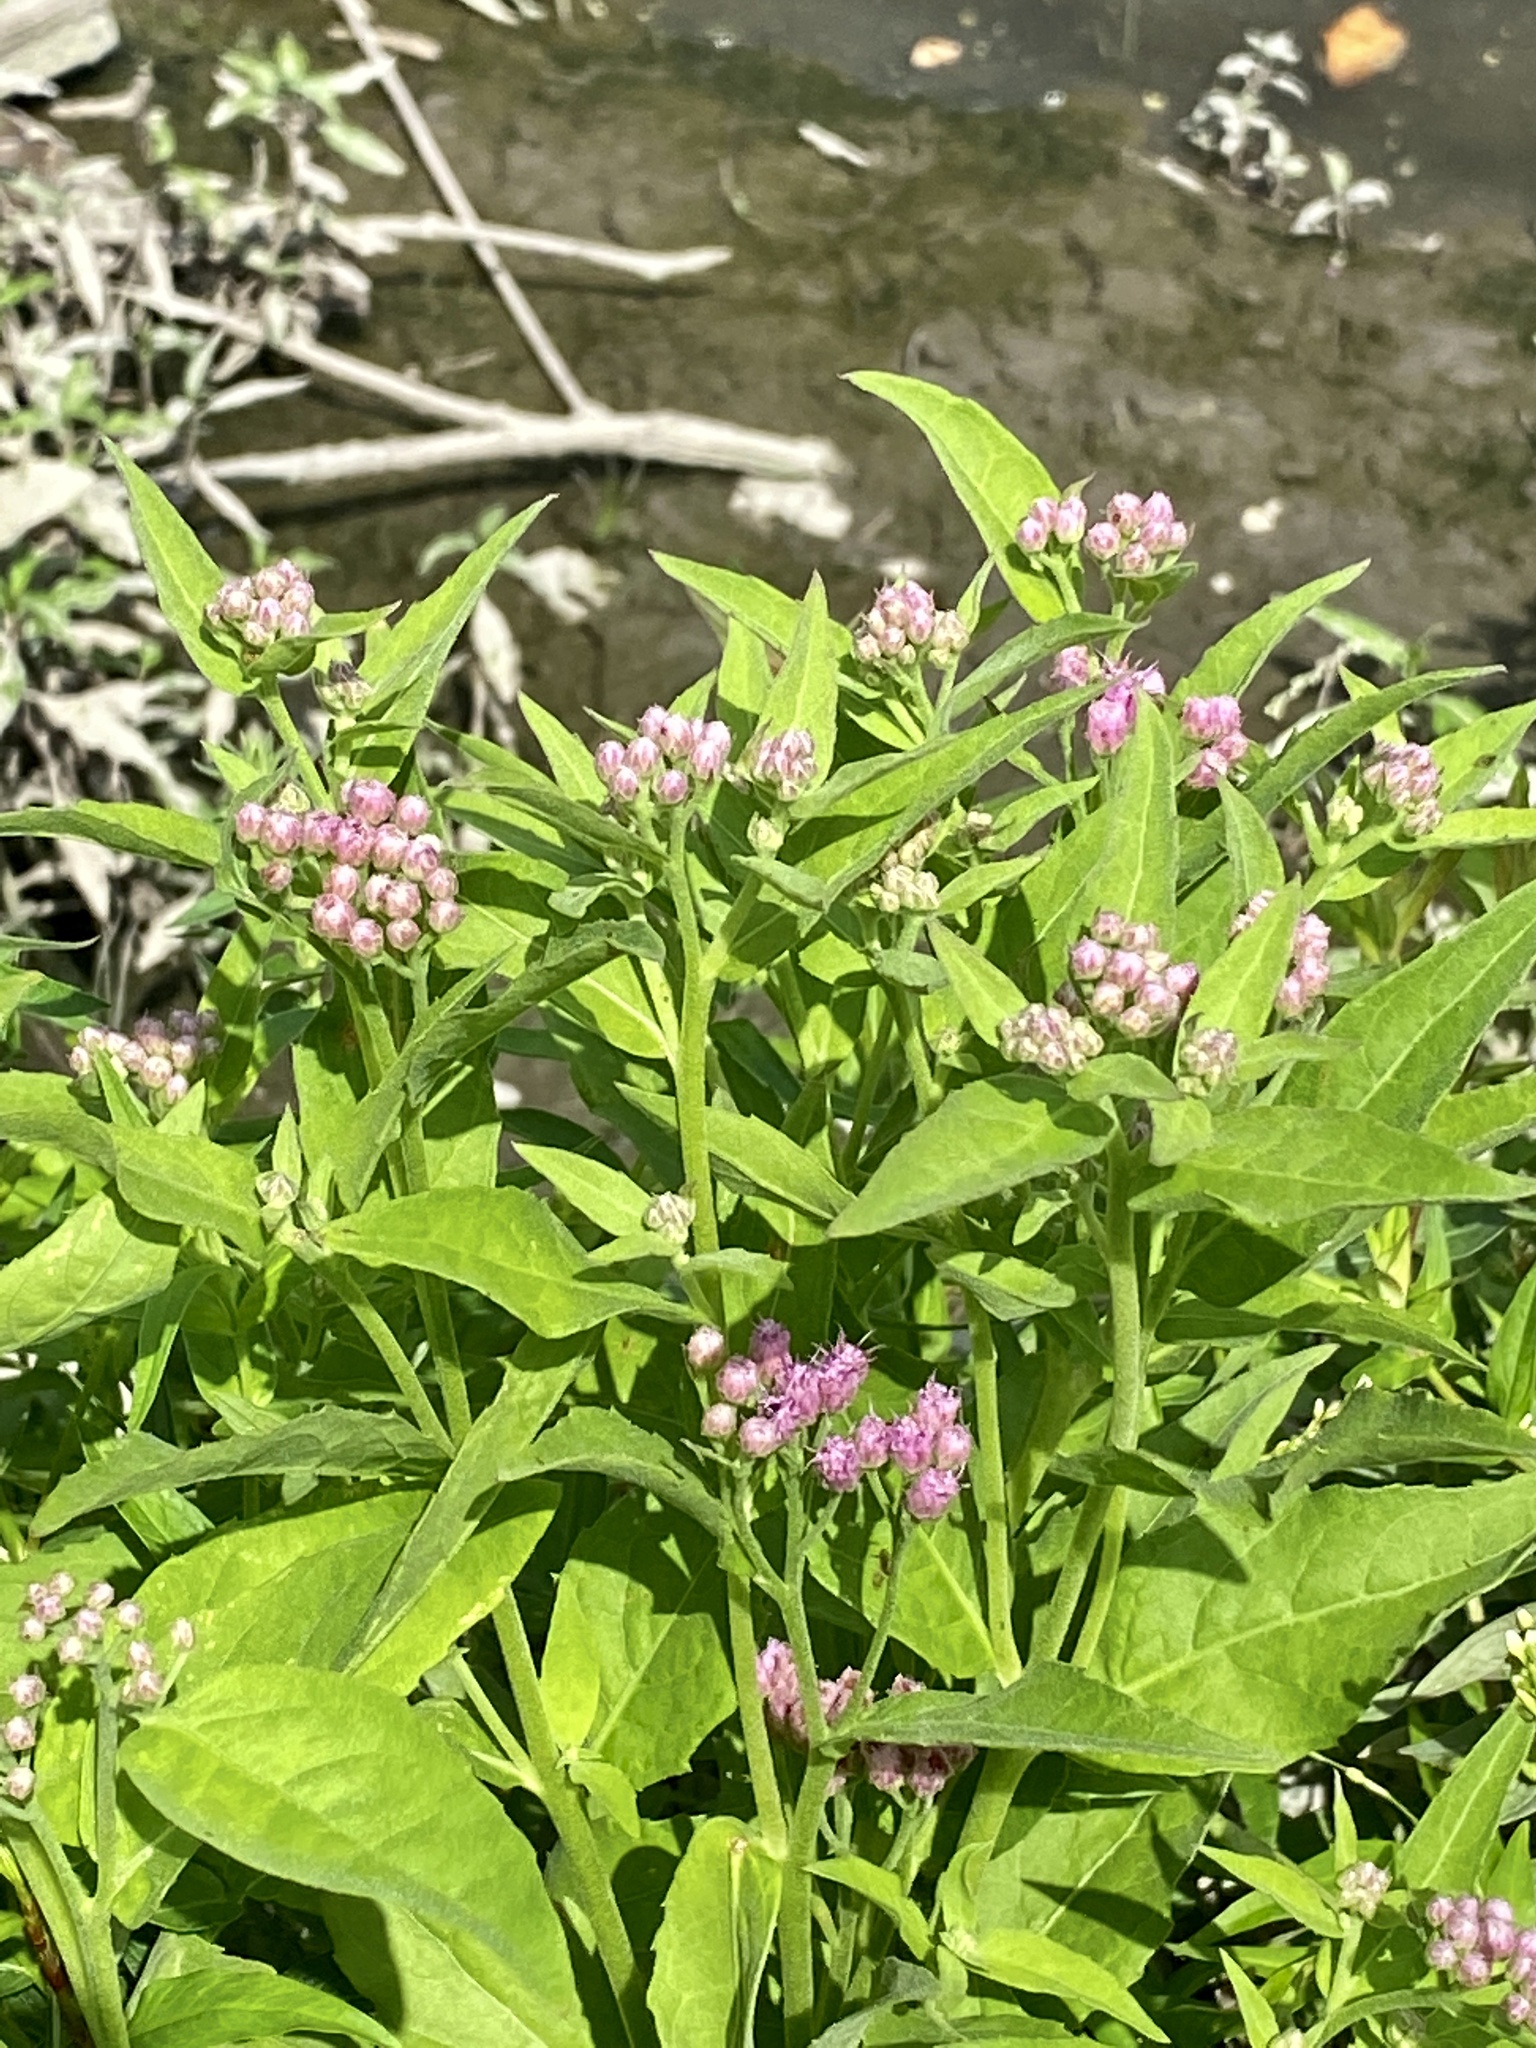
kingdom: Plantae
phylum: Tracheophyta
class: Magnoliopsida
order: Asterales
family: Asteraceae
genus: Pluchea
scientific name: Pluchea odorata
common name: Saltmarsh fleabane
